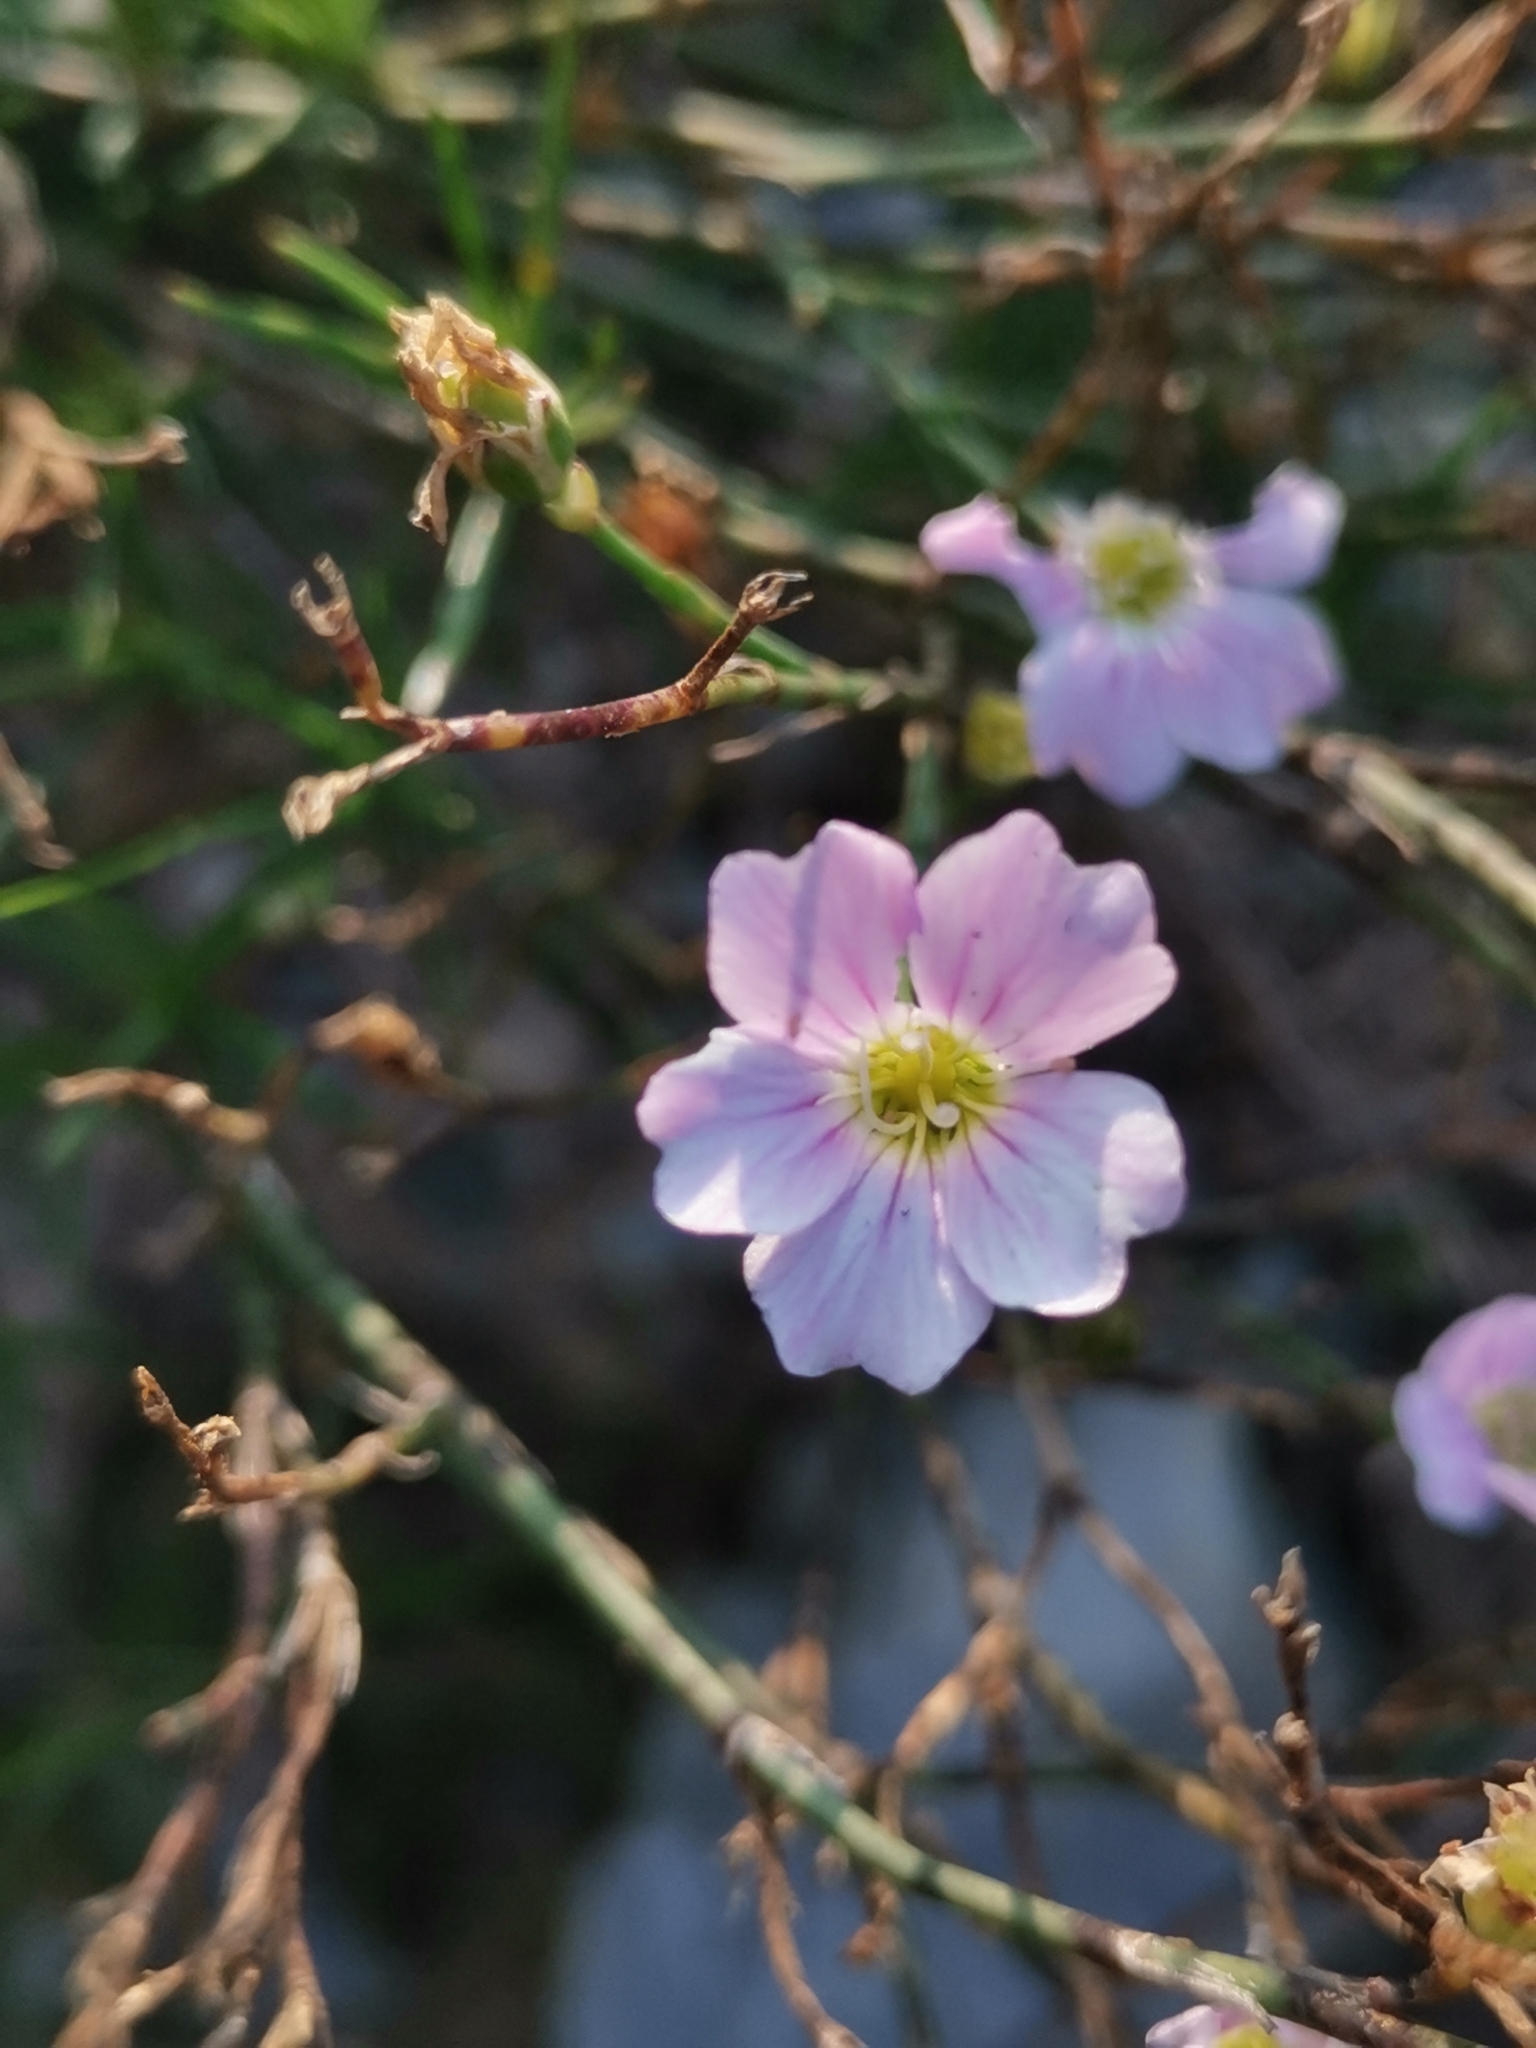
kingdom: Plantae
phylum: Tracheophyta
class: Magnoliopsida
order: Caryophyllales
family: Caryophyllaceae
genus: Petrorhagia
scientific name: Petrorhagia saxifraga
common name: Tunicflower
